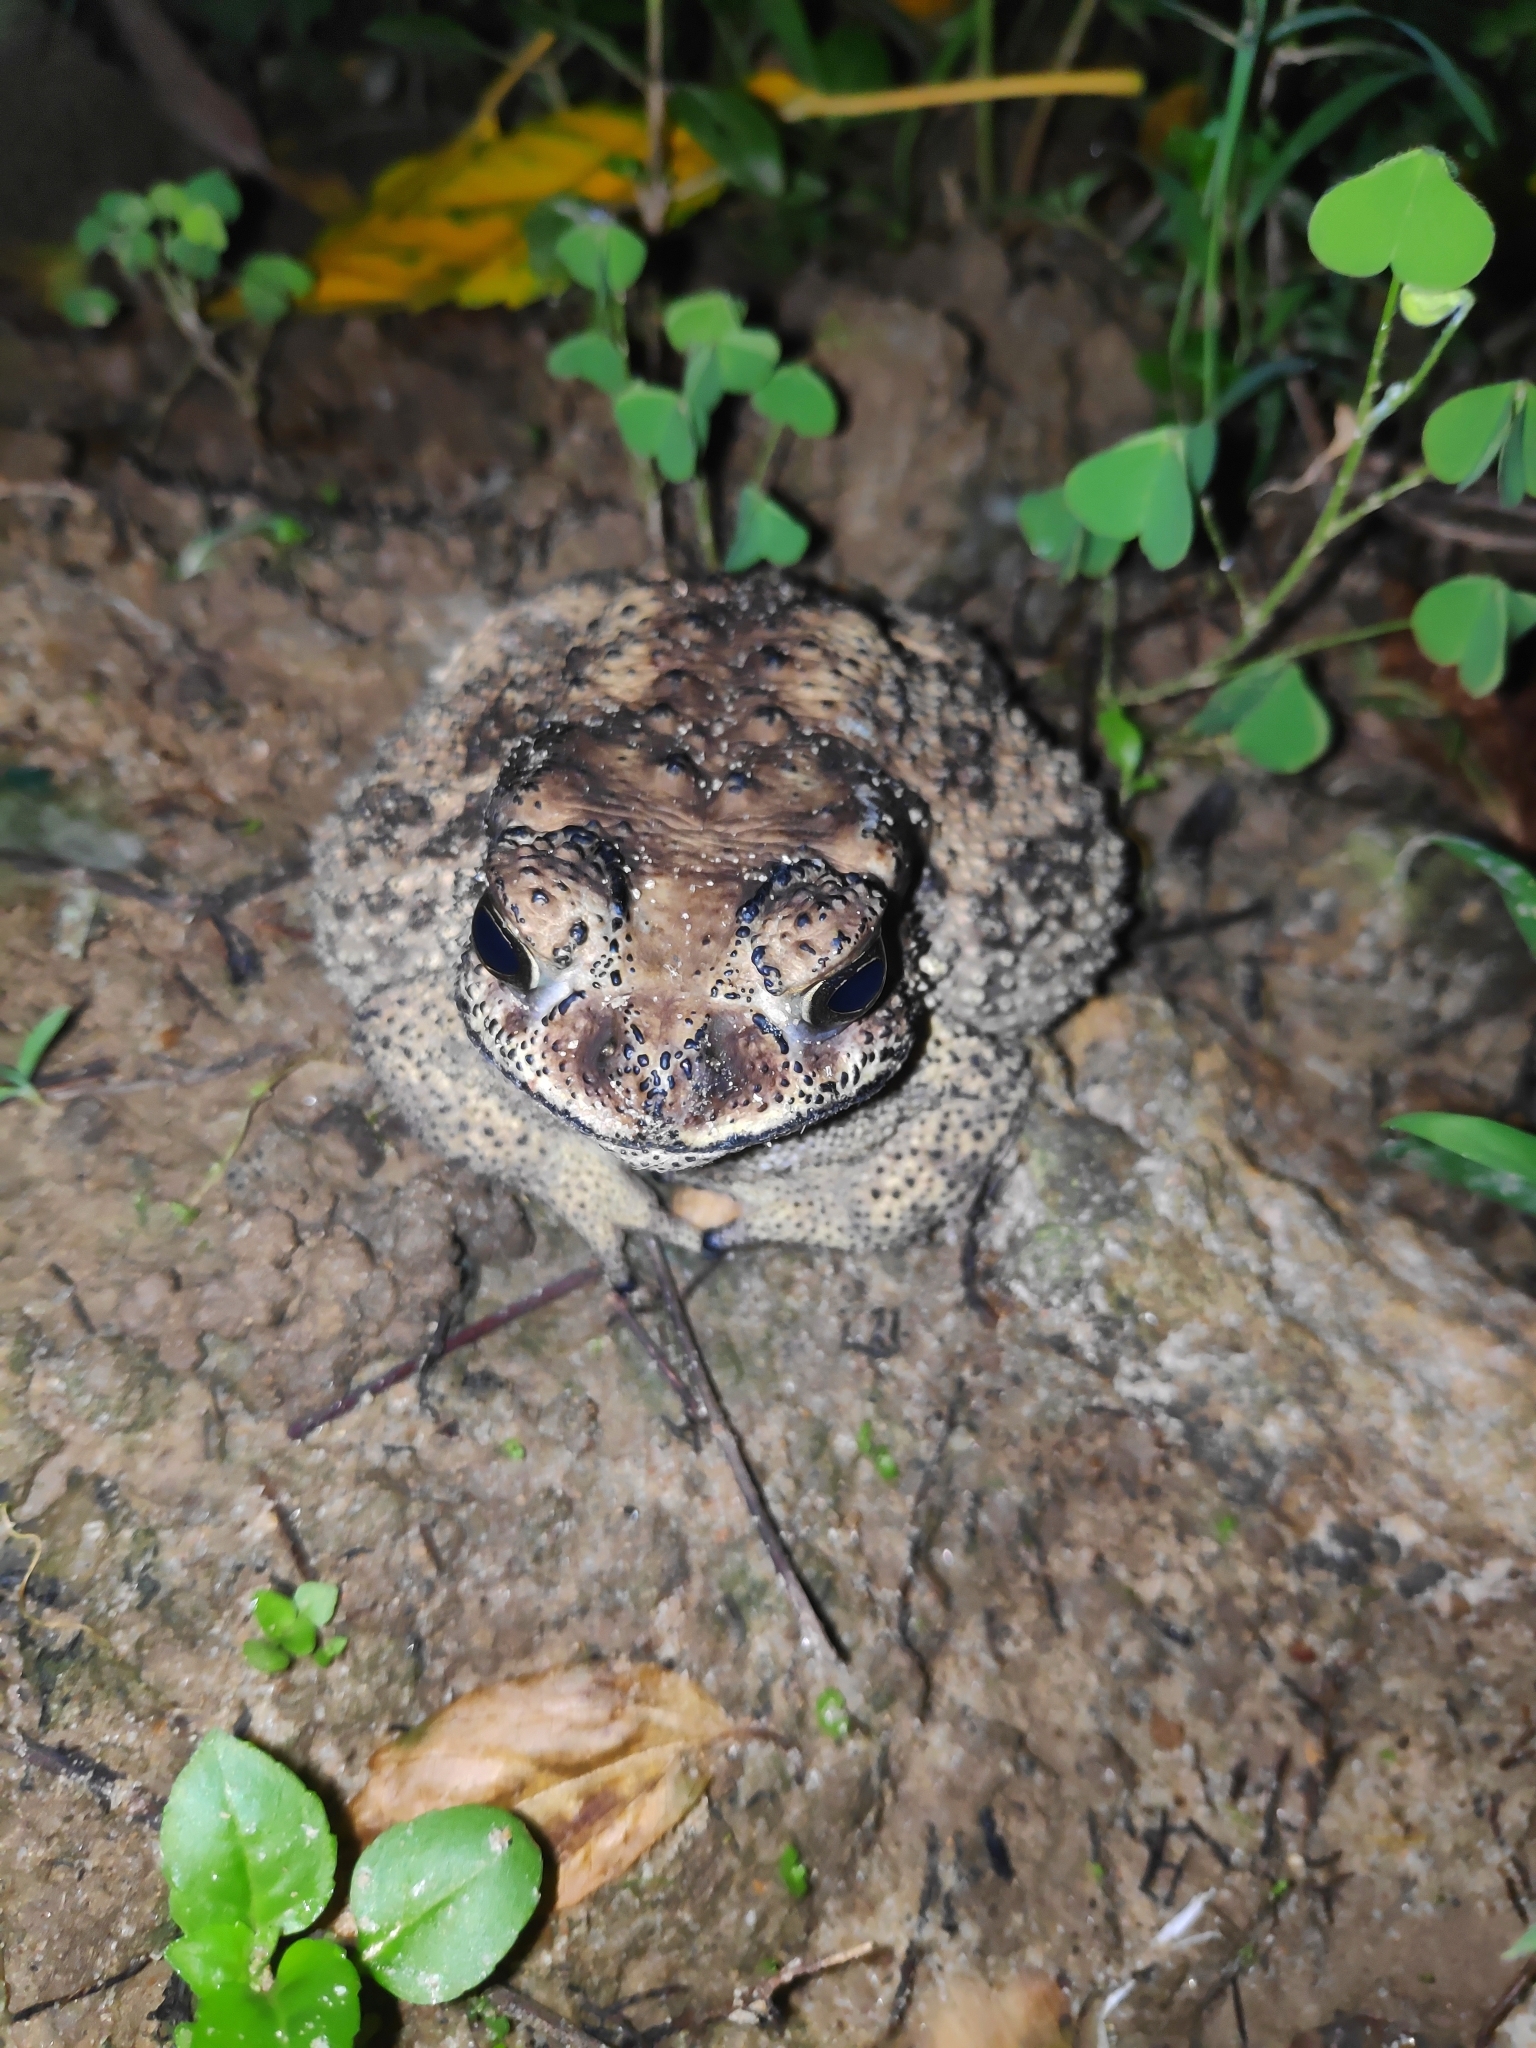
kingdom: Animalia
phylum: Chordata
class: Amphibia
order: Anura
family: Bufonidae
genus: Duttaphrynus
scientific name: Duttaphrynus melanostictus
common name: Common sunda toad
